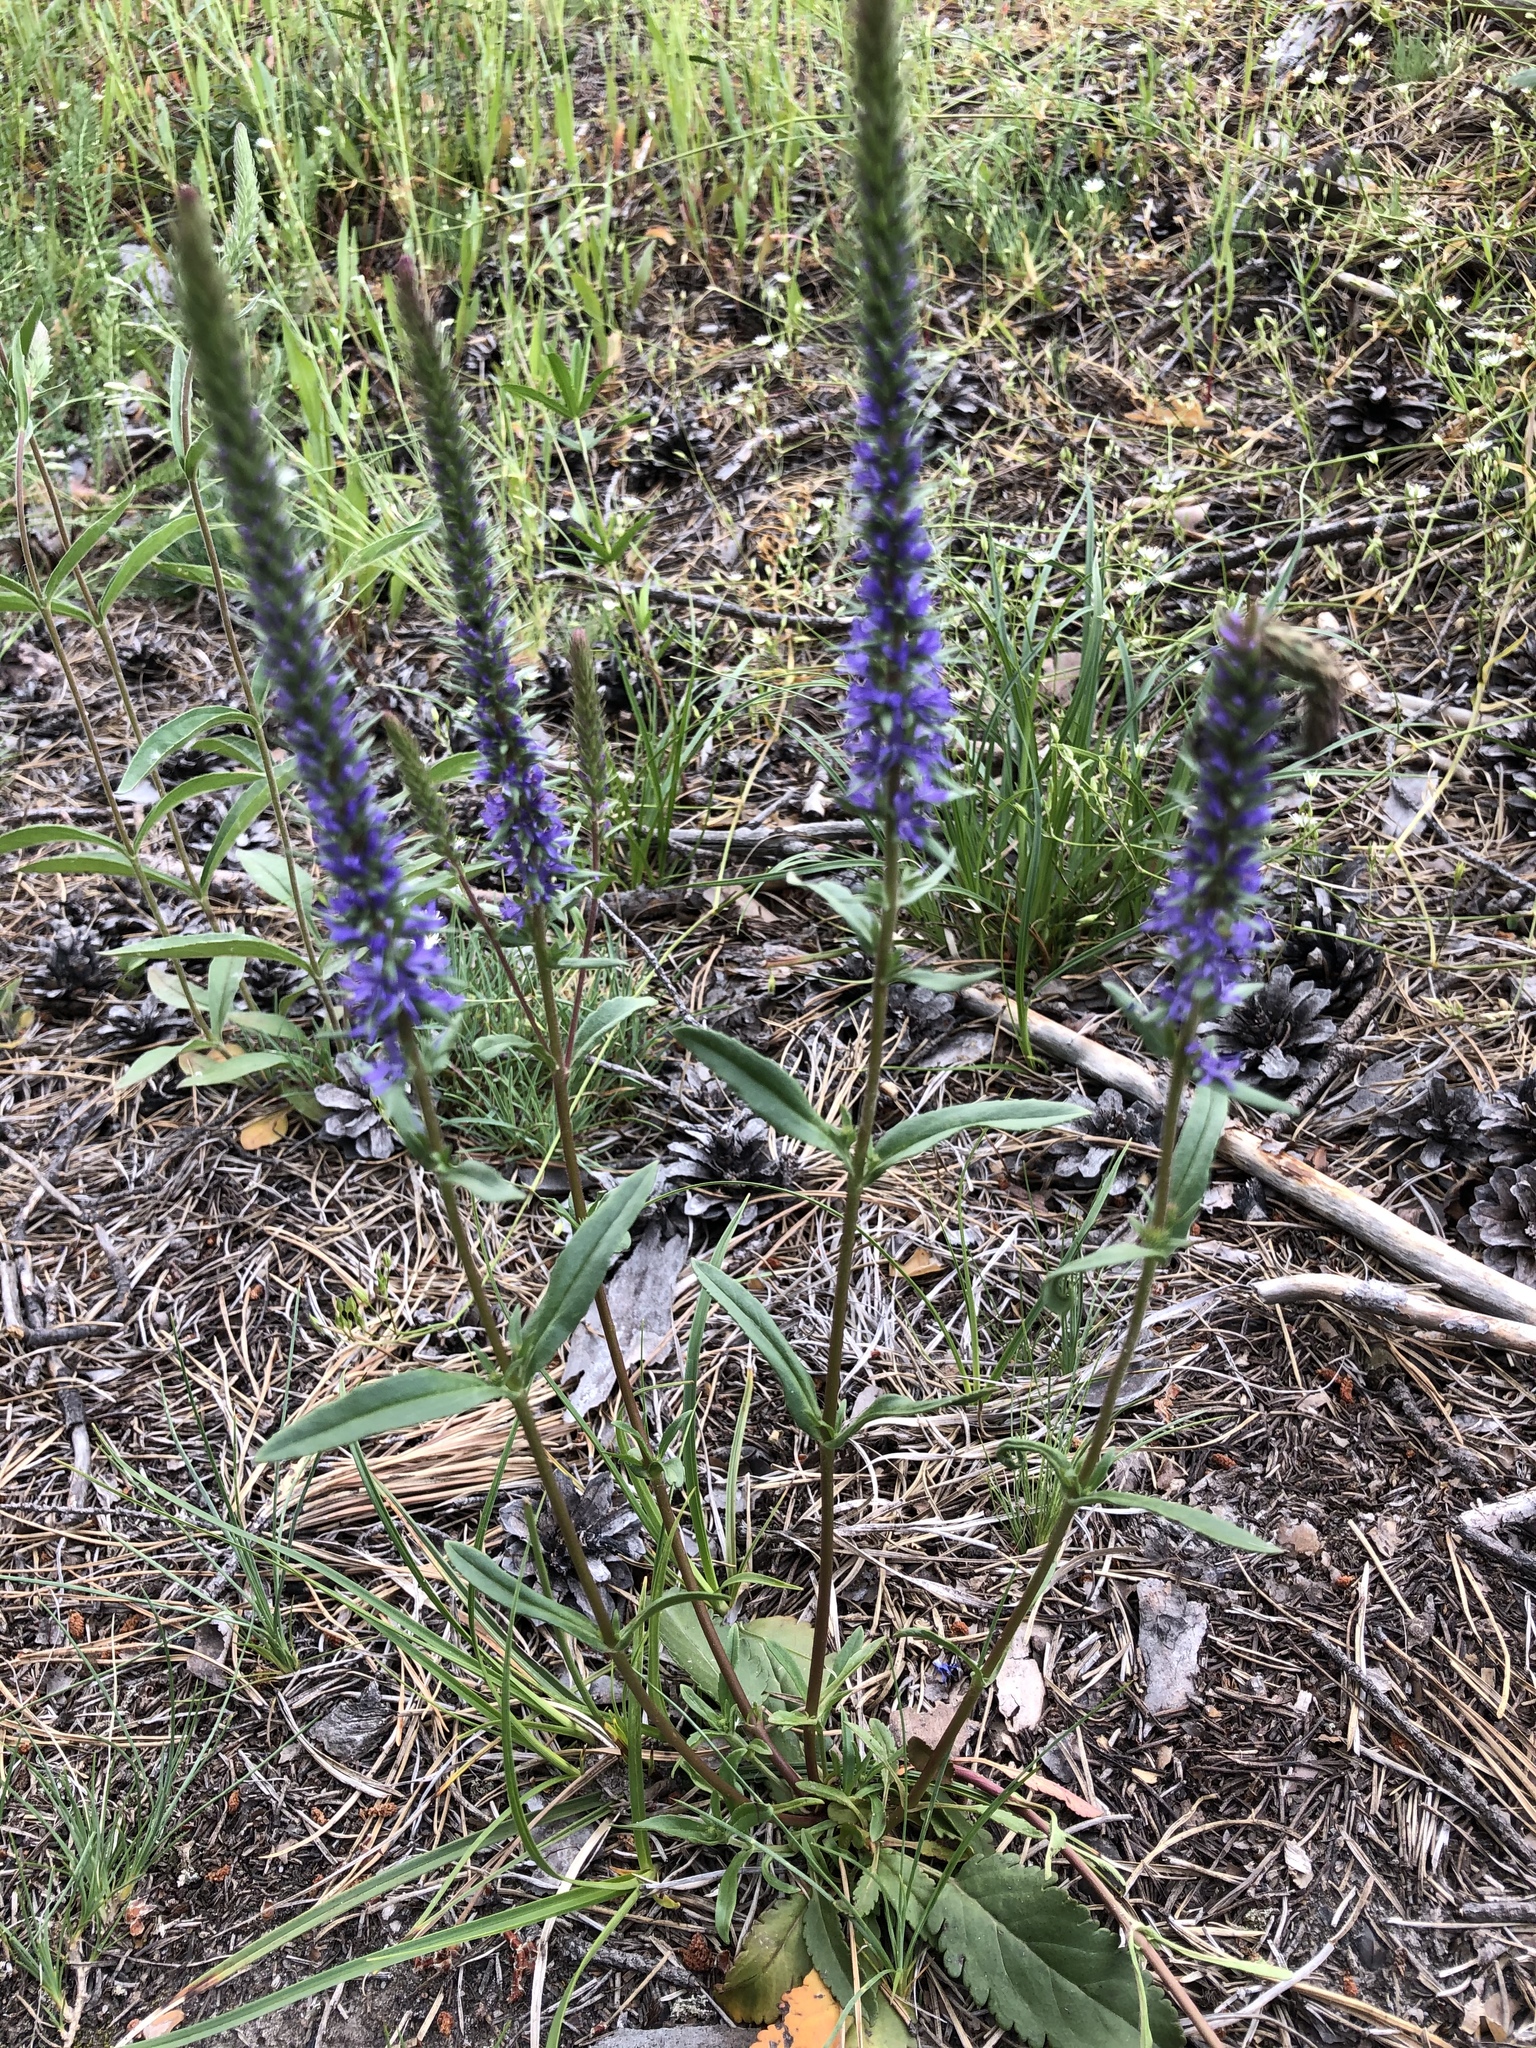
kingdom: Plantae
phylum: Tracheophyta
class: Magnoliopsida
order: Lamiales
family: Plantaginaceae
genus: Veronica
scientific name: Veronica spicata
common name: Spiked speedwell
